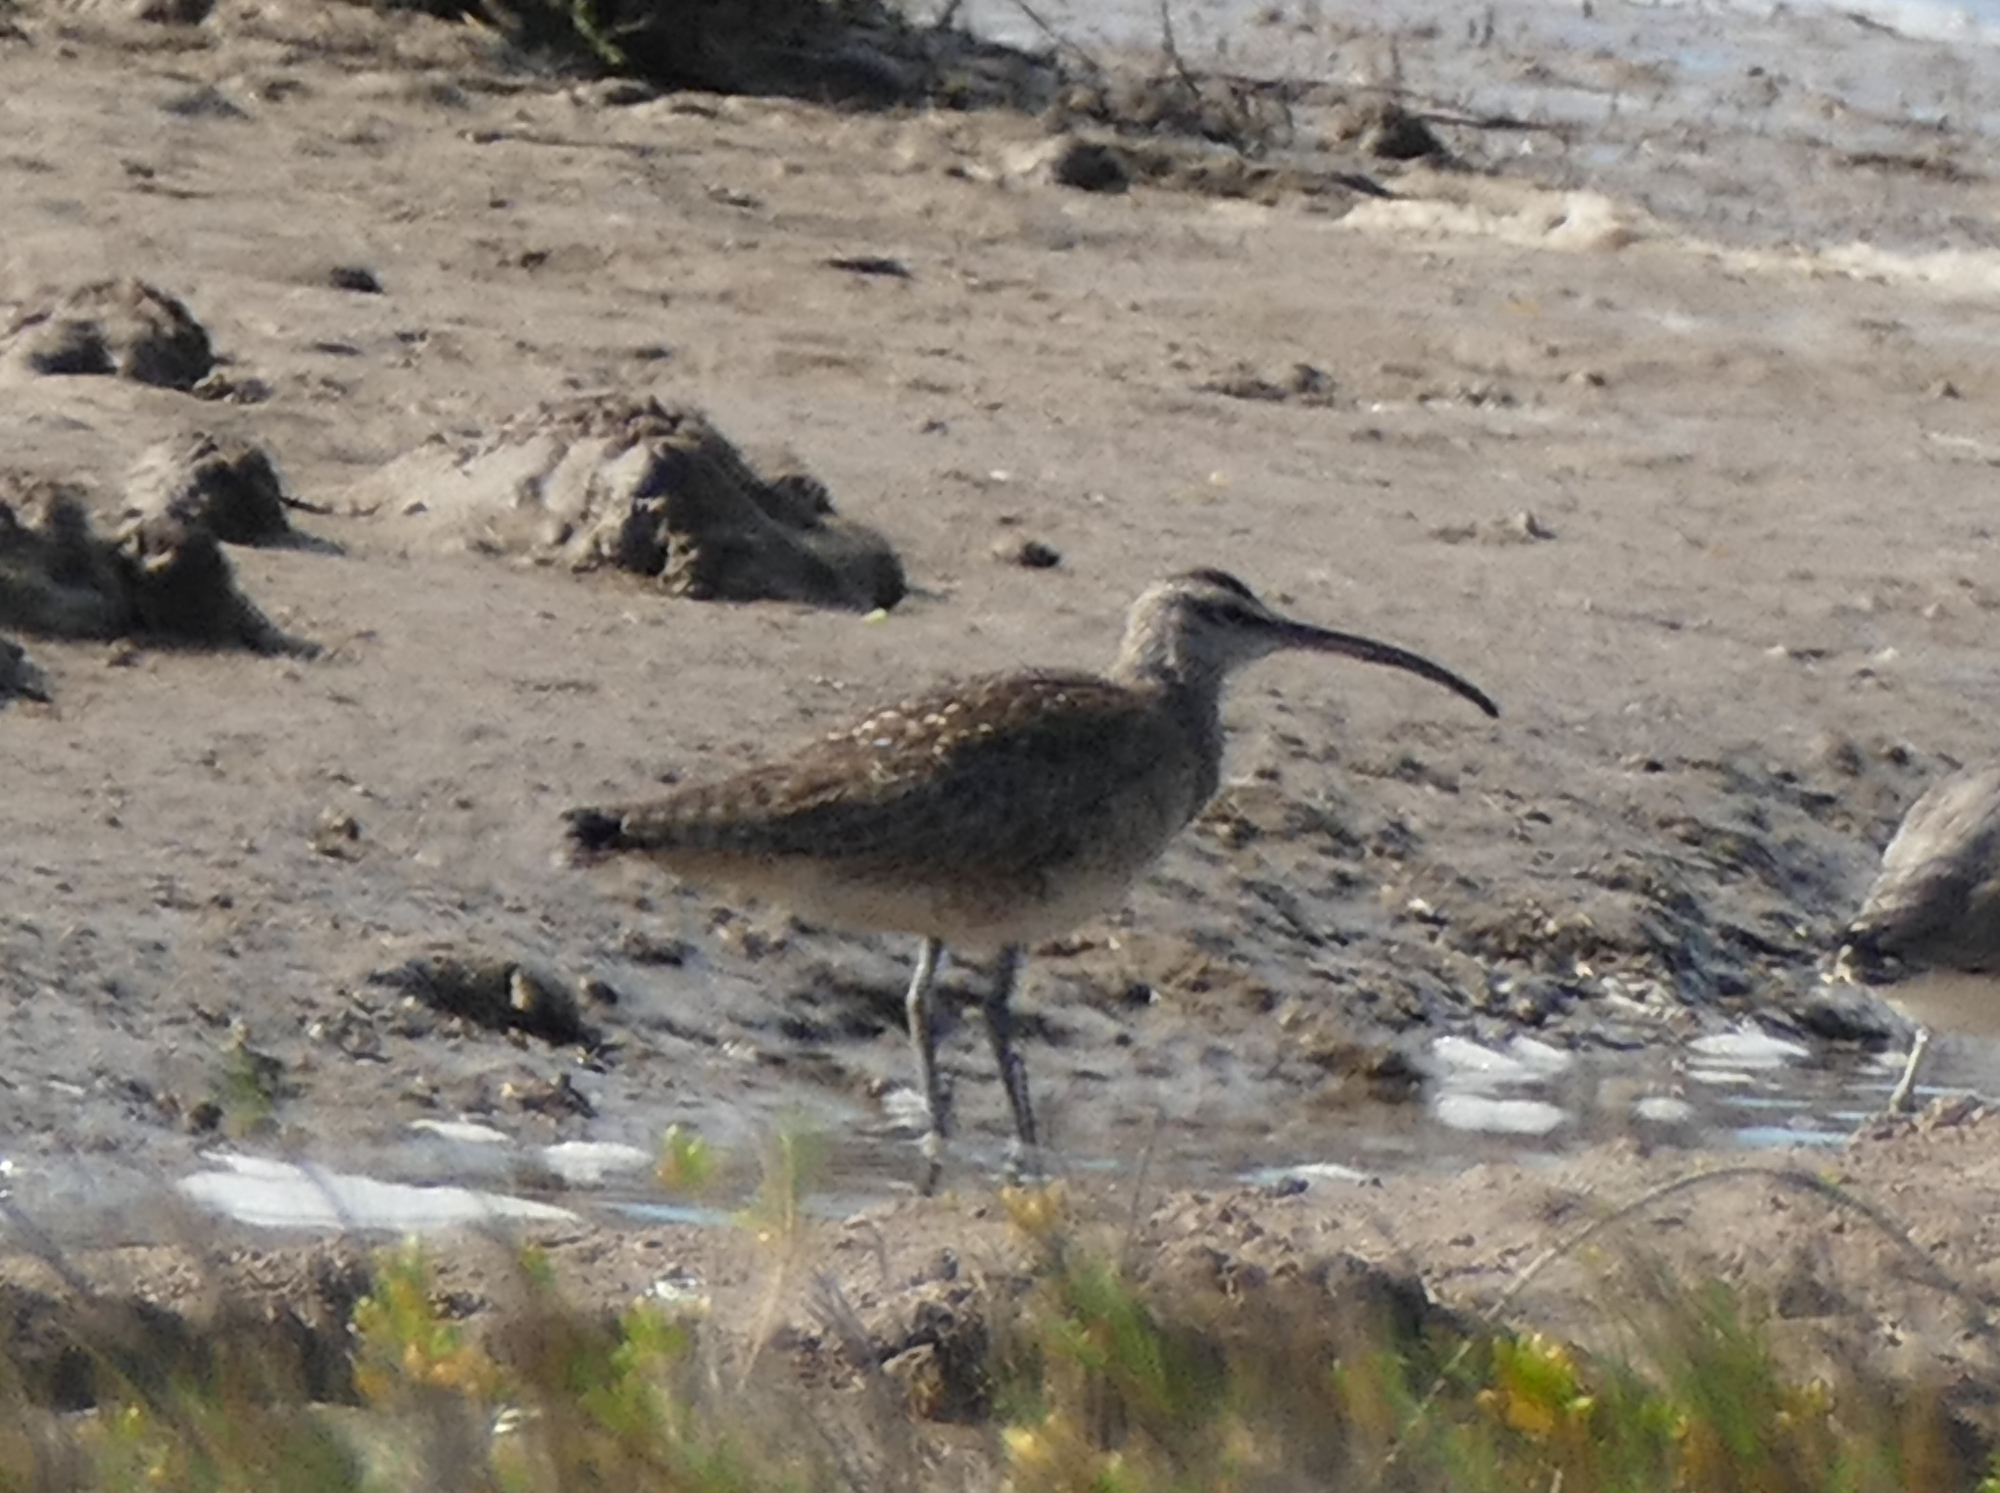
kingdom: Animalia
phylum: Chordata
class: Aves
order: Charadriiformes
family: Scolopacidae
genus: Numenius
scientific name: Numenius phaeopus
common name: Whimbrel
